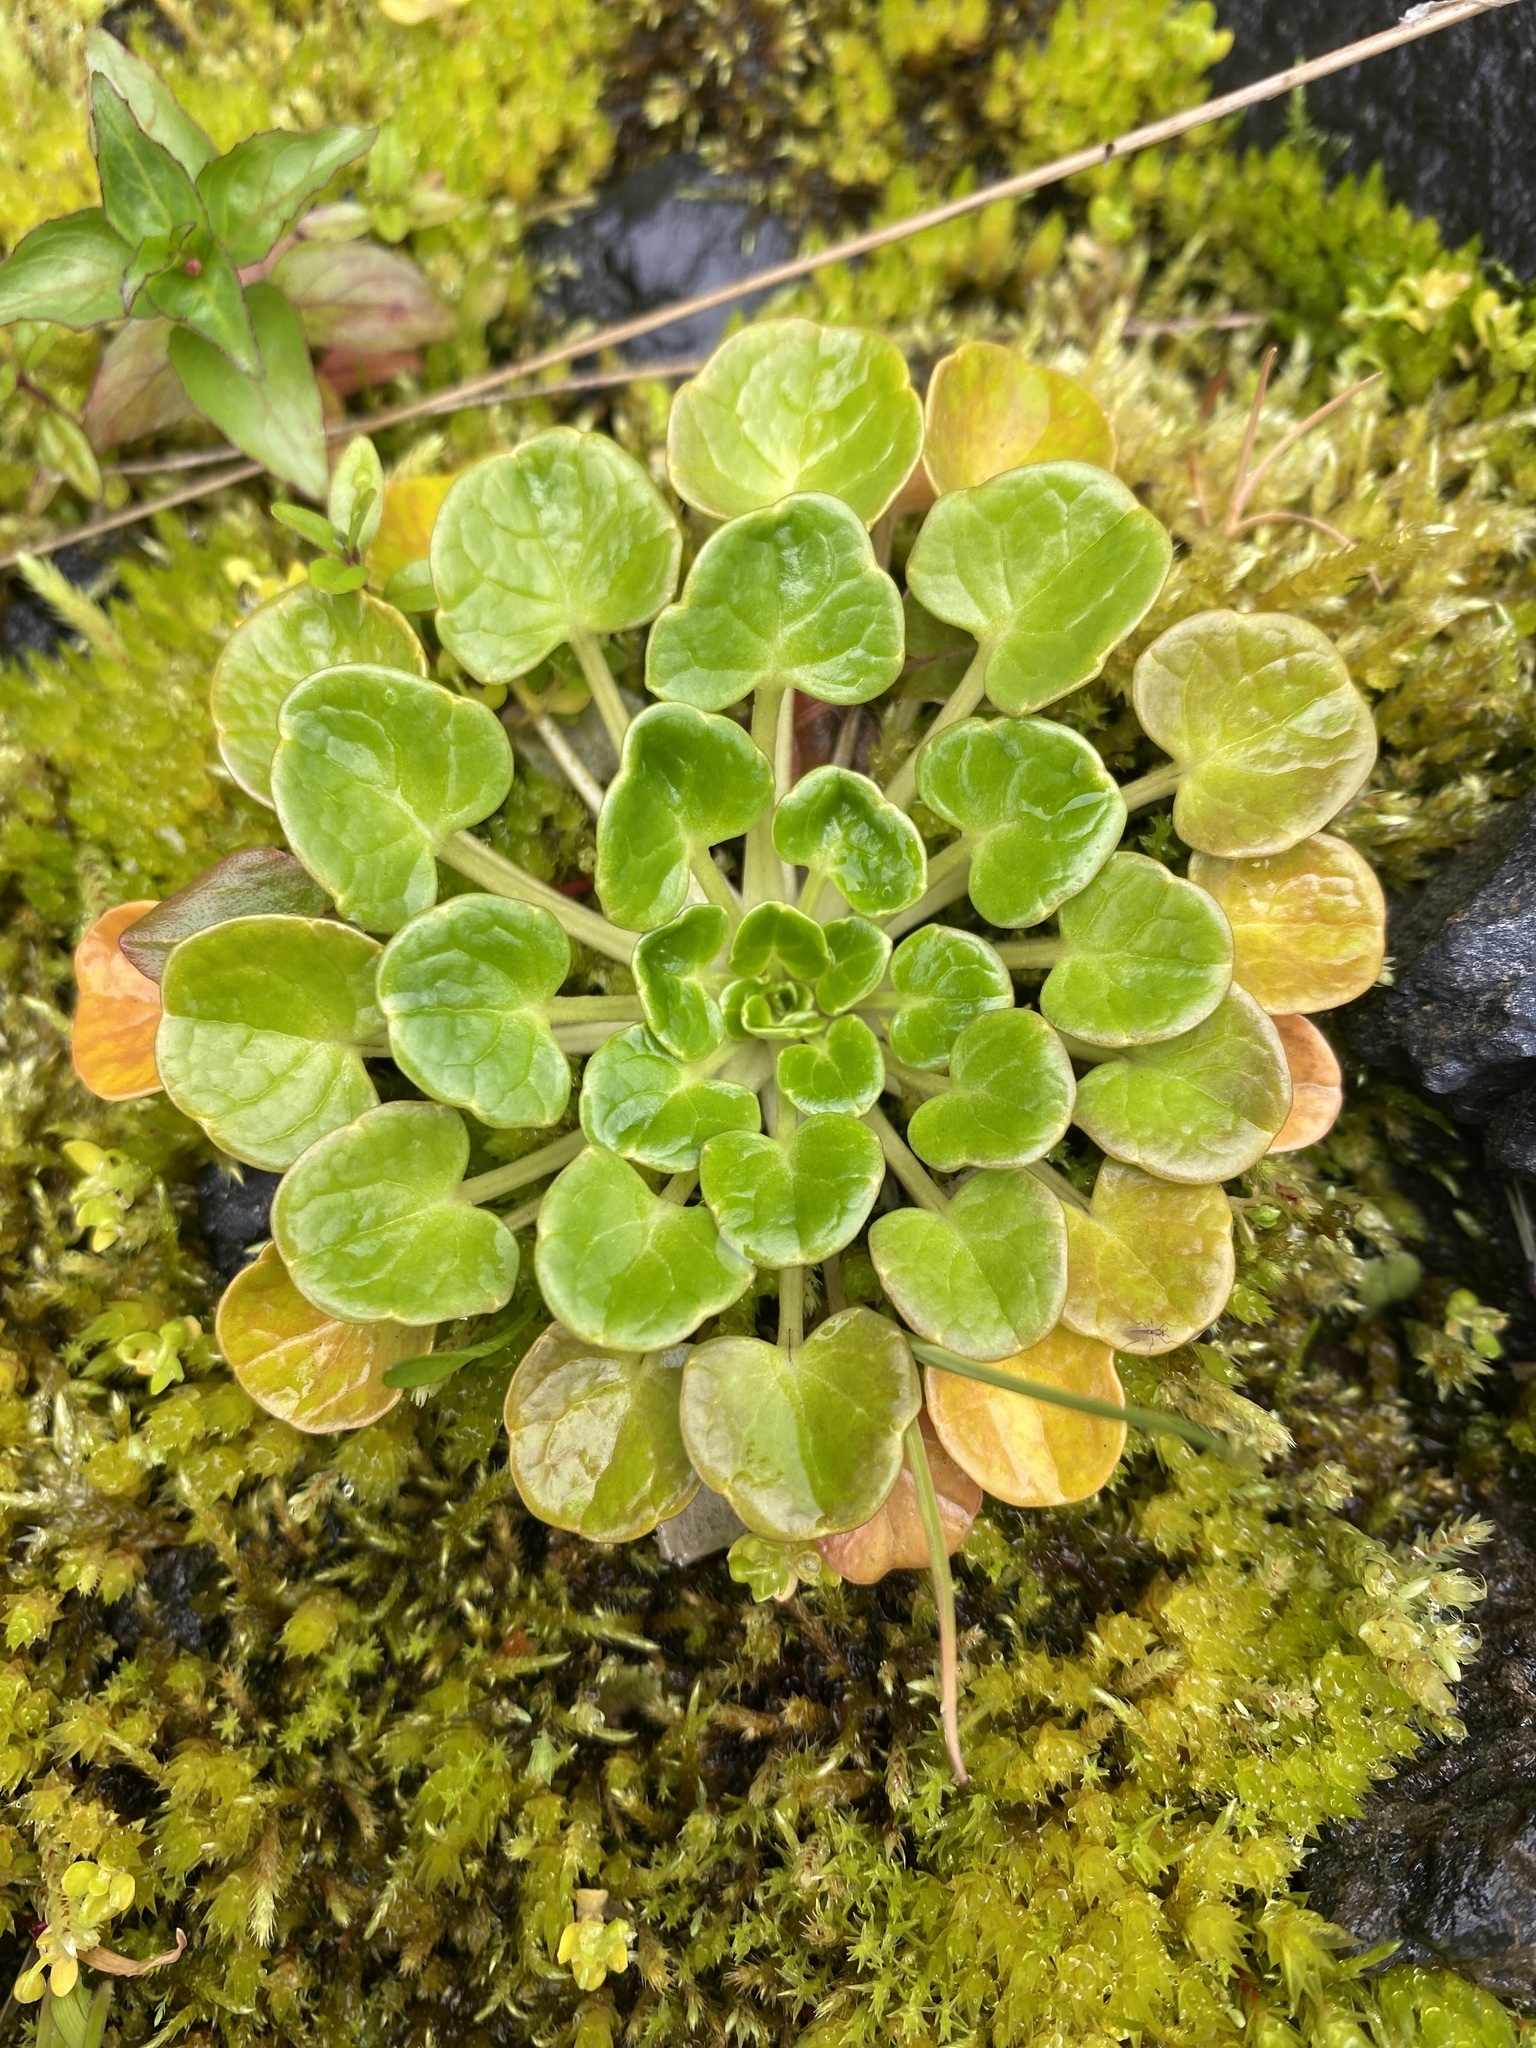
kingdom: Plantae
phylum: Tracheophyta
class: Magnoliopsida
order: Brassicales
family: Brassicaceae
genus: Cochlearia
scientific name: Cochlearia officinalis
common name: Scurvy-grass
